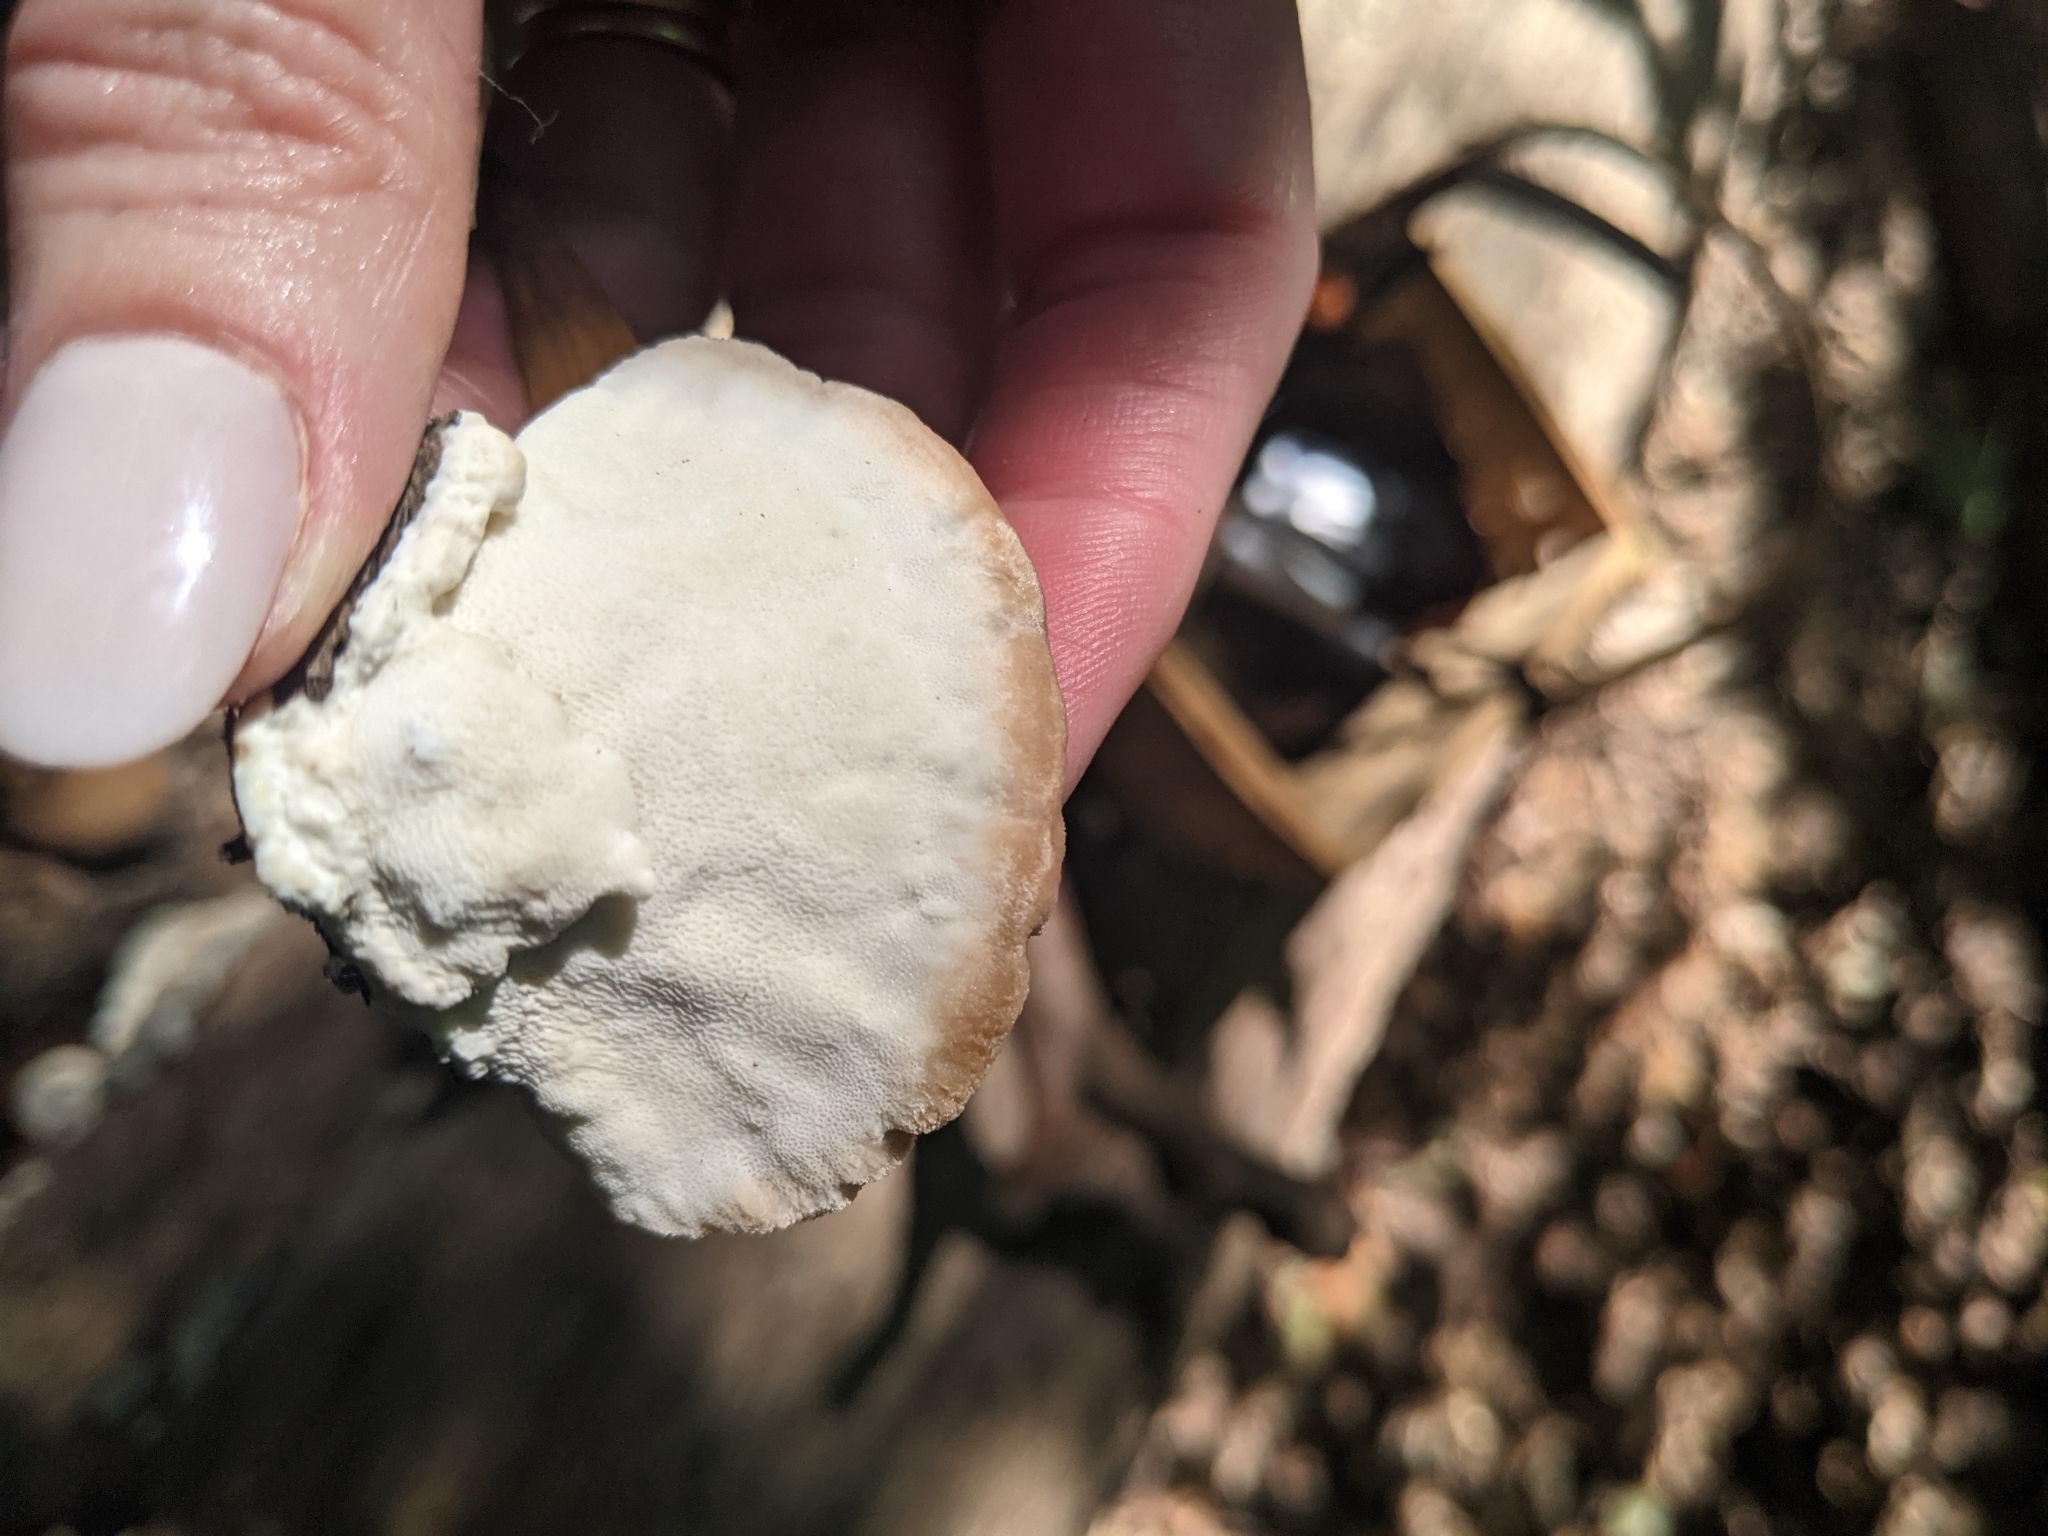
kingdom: Fungi
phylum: Basidiomycota
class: Agaricomycetes
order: Polyporales
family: Fomitopsidaceae
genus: Niveoporofomes
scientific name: Niveoporofomes spraguei
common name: Green cheese polypore
